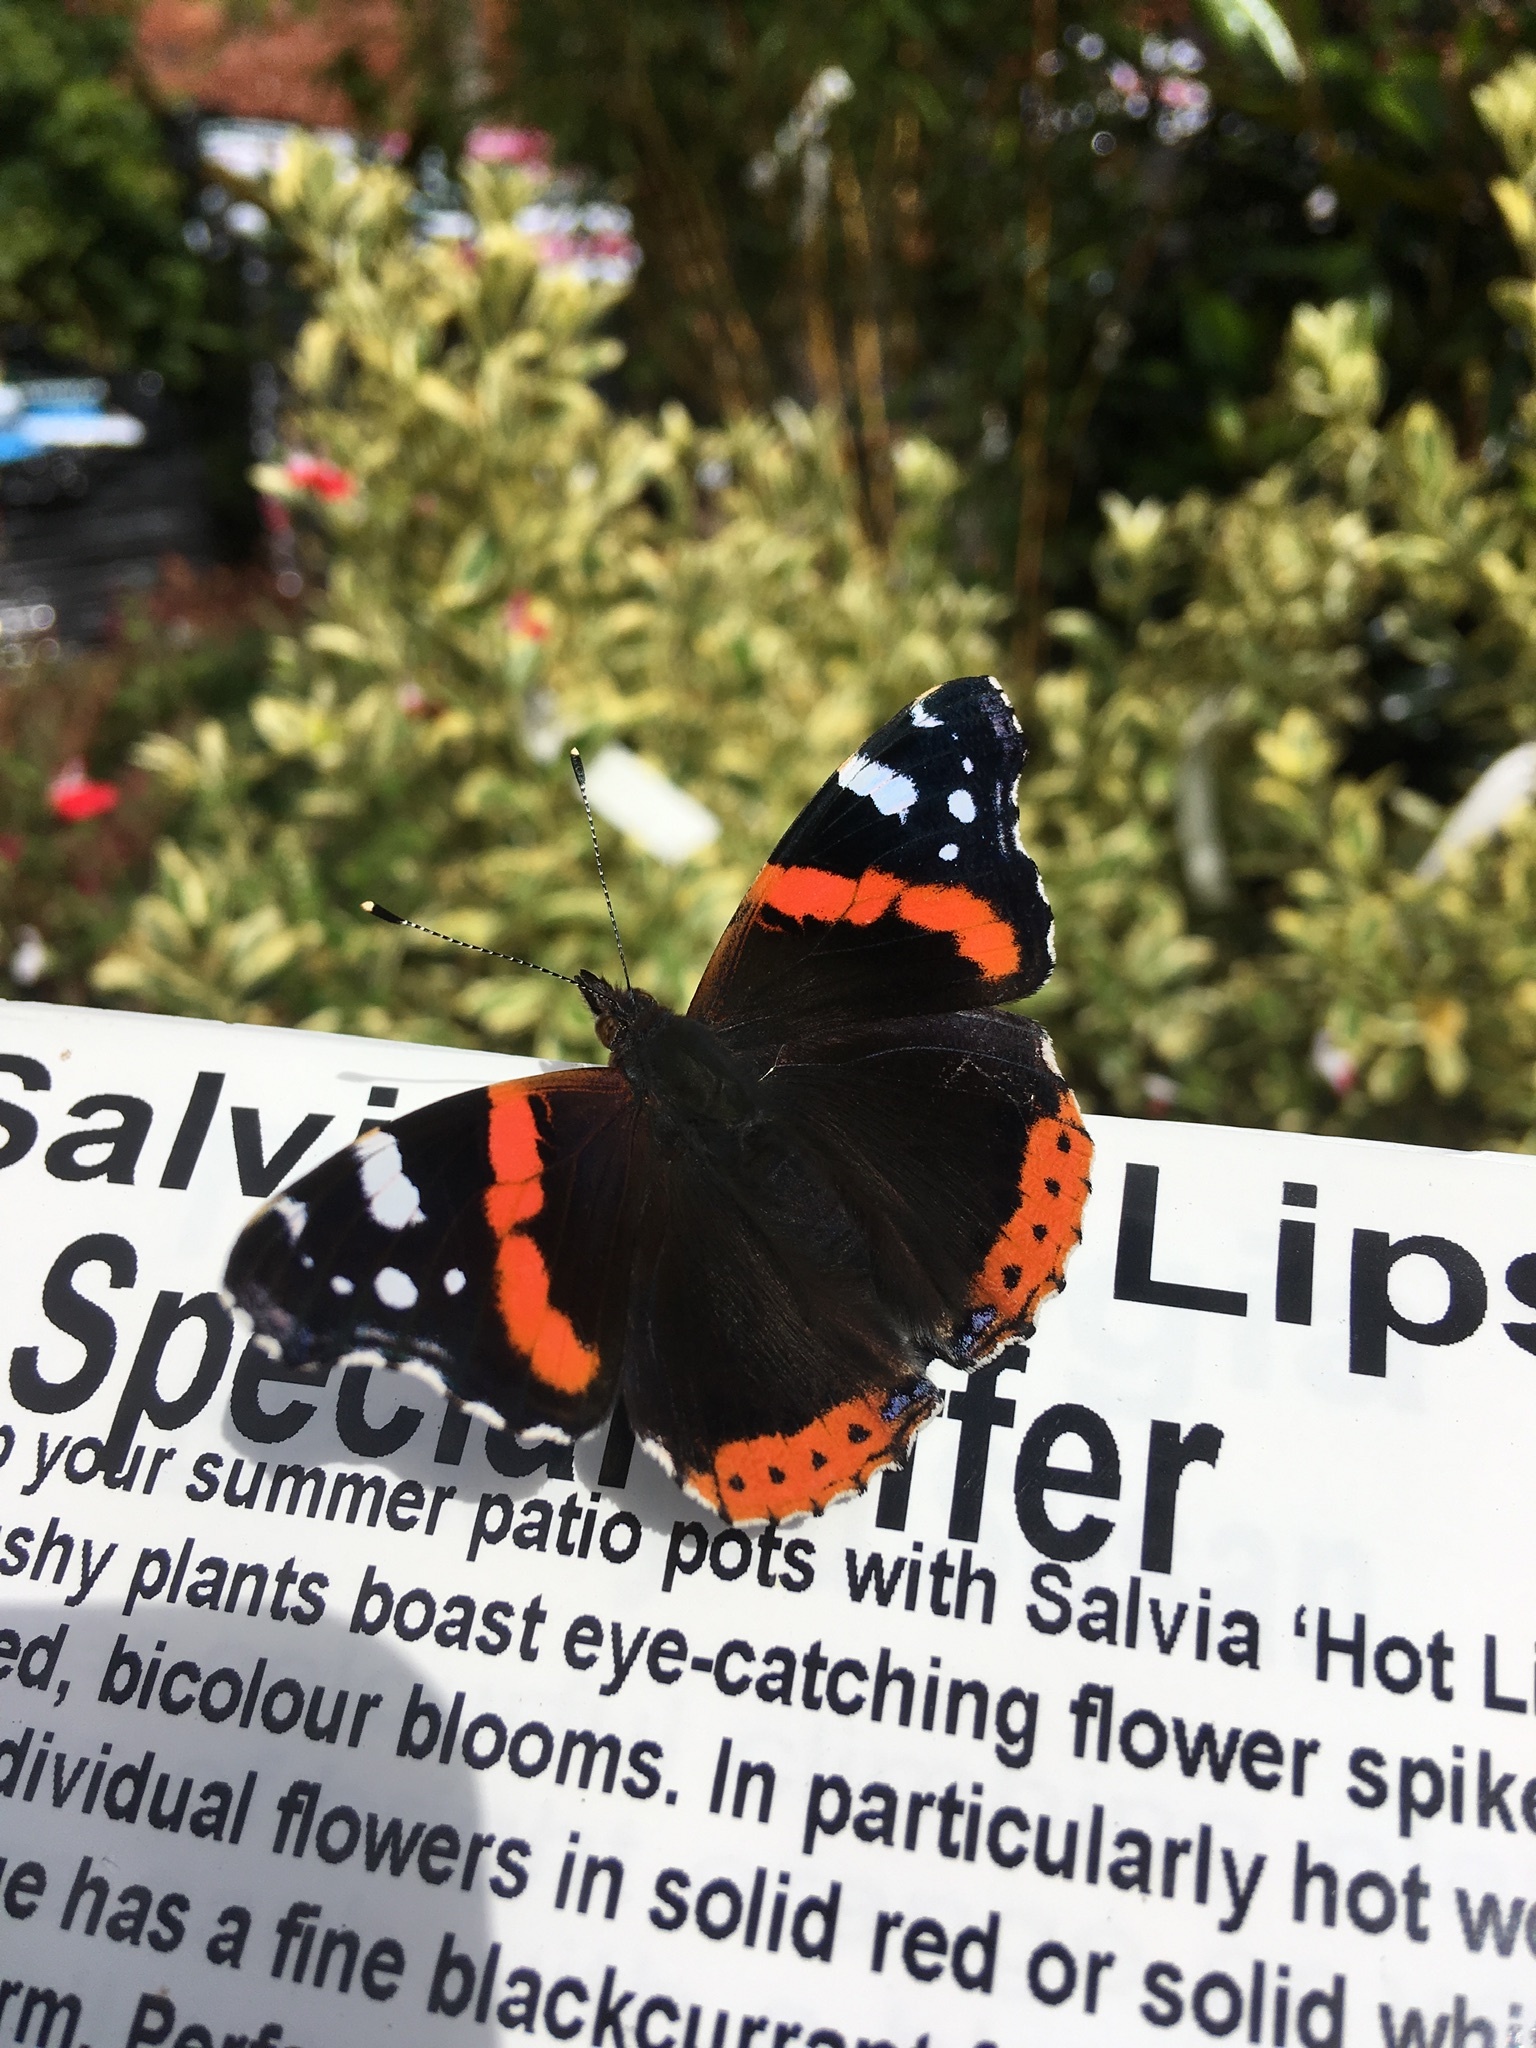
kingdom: Animalia
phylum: Arthropoda
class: Insecta
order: Lepidoptera
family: Nymphalidae
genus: Vanessa
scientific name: Vanessa atalanta
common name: Red admiral
